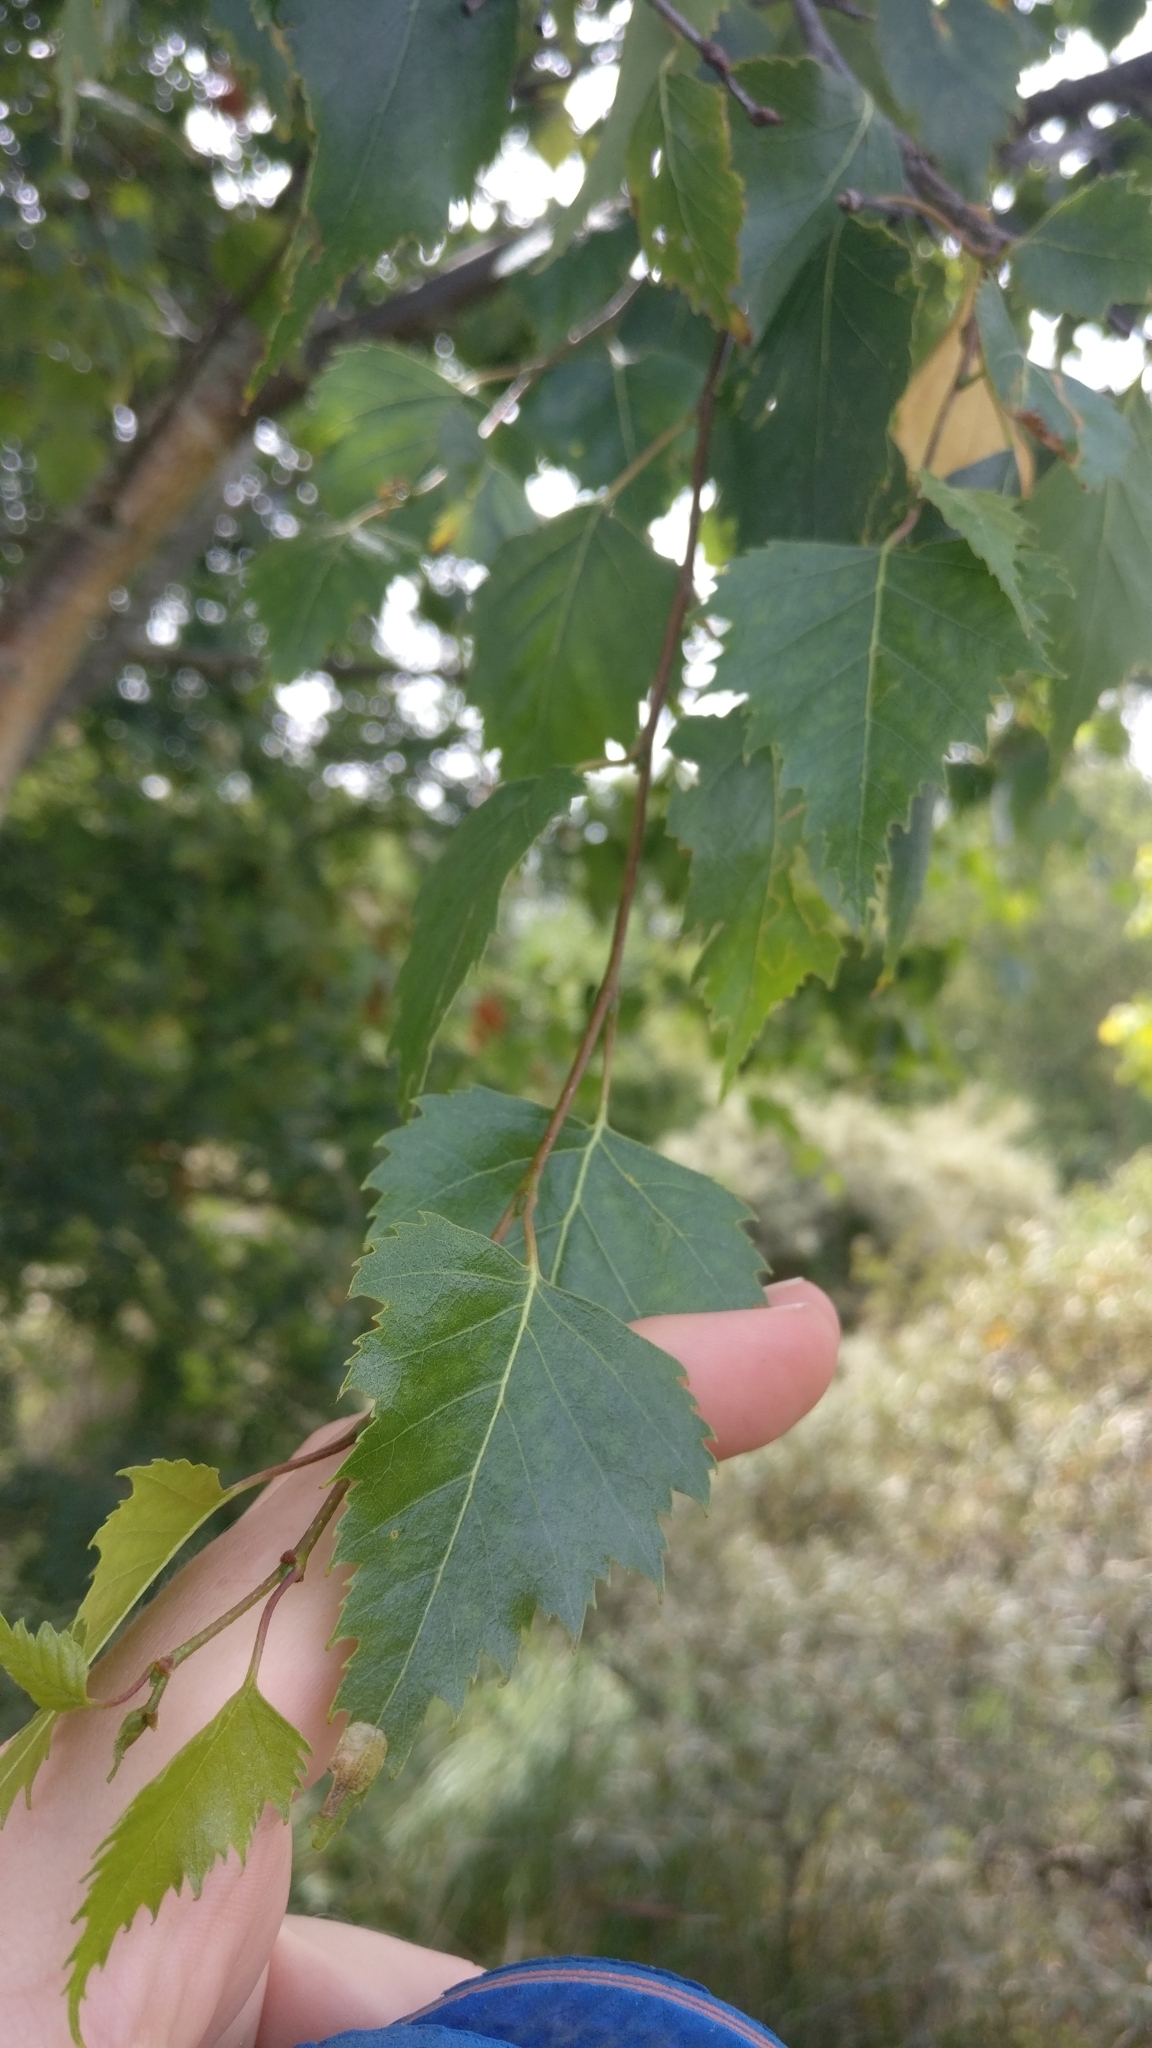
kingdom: Plantae
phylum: Tracheophyta
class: Magnoliopsida
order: Fagales
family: Betulaceae
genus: Betula
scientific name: Betula pendula
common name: Silver birch
